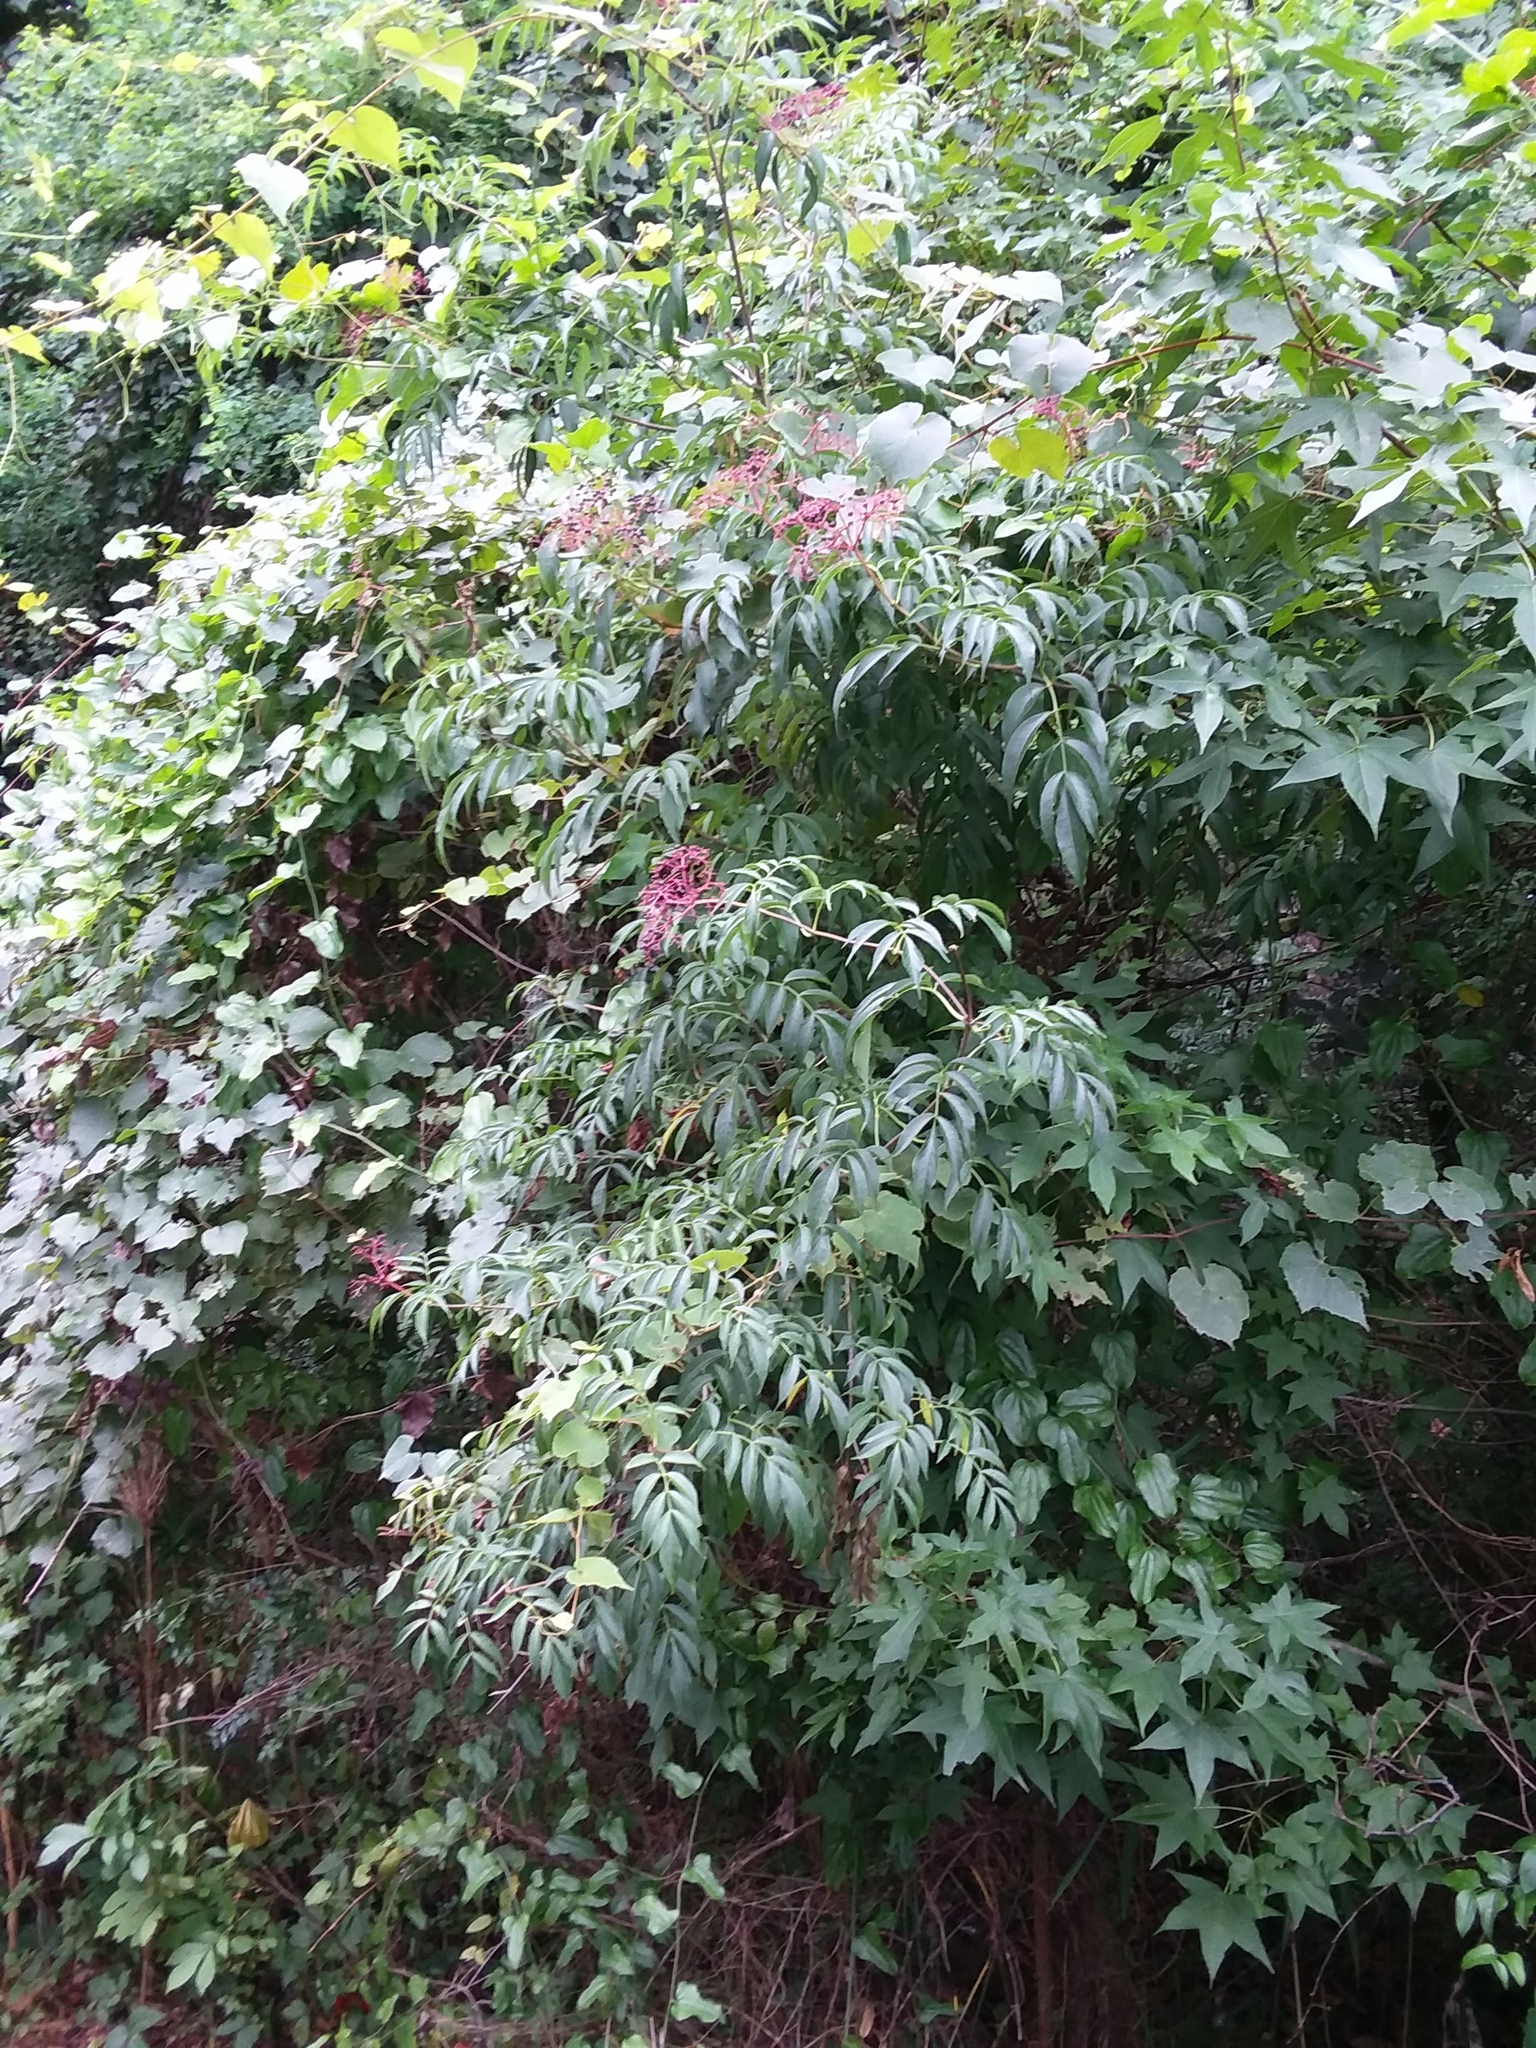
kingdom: Plantae
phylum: Tracheophyta
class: Magnoliopsida
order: Dipsacales
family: Viburnaceae
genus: Sambucus
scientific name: Sambucus canadensis
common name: American elder
